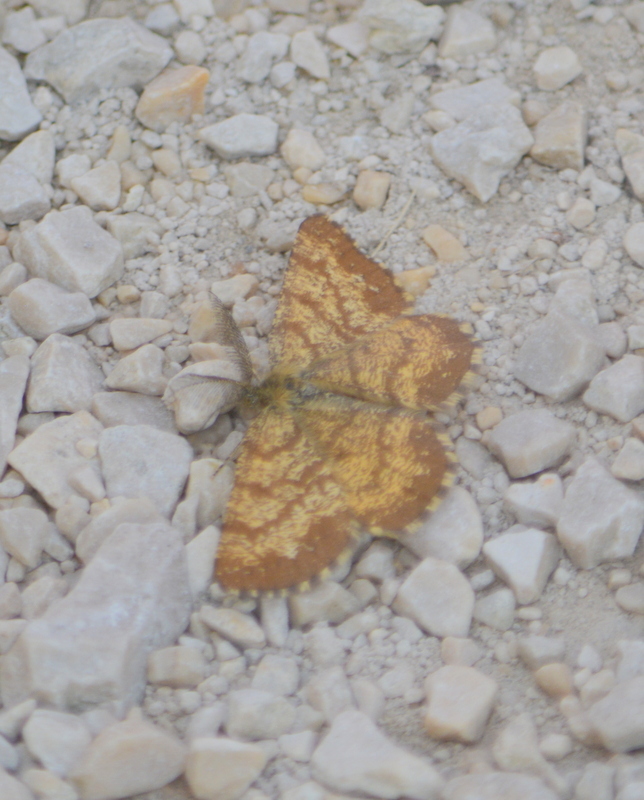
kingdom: Animalia
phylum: Arthropoda
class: Insecta
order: Lepidoptera
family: Geometridae
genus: Ematurga
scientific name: Ematurga atomaria
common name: Common heath
